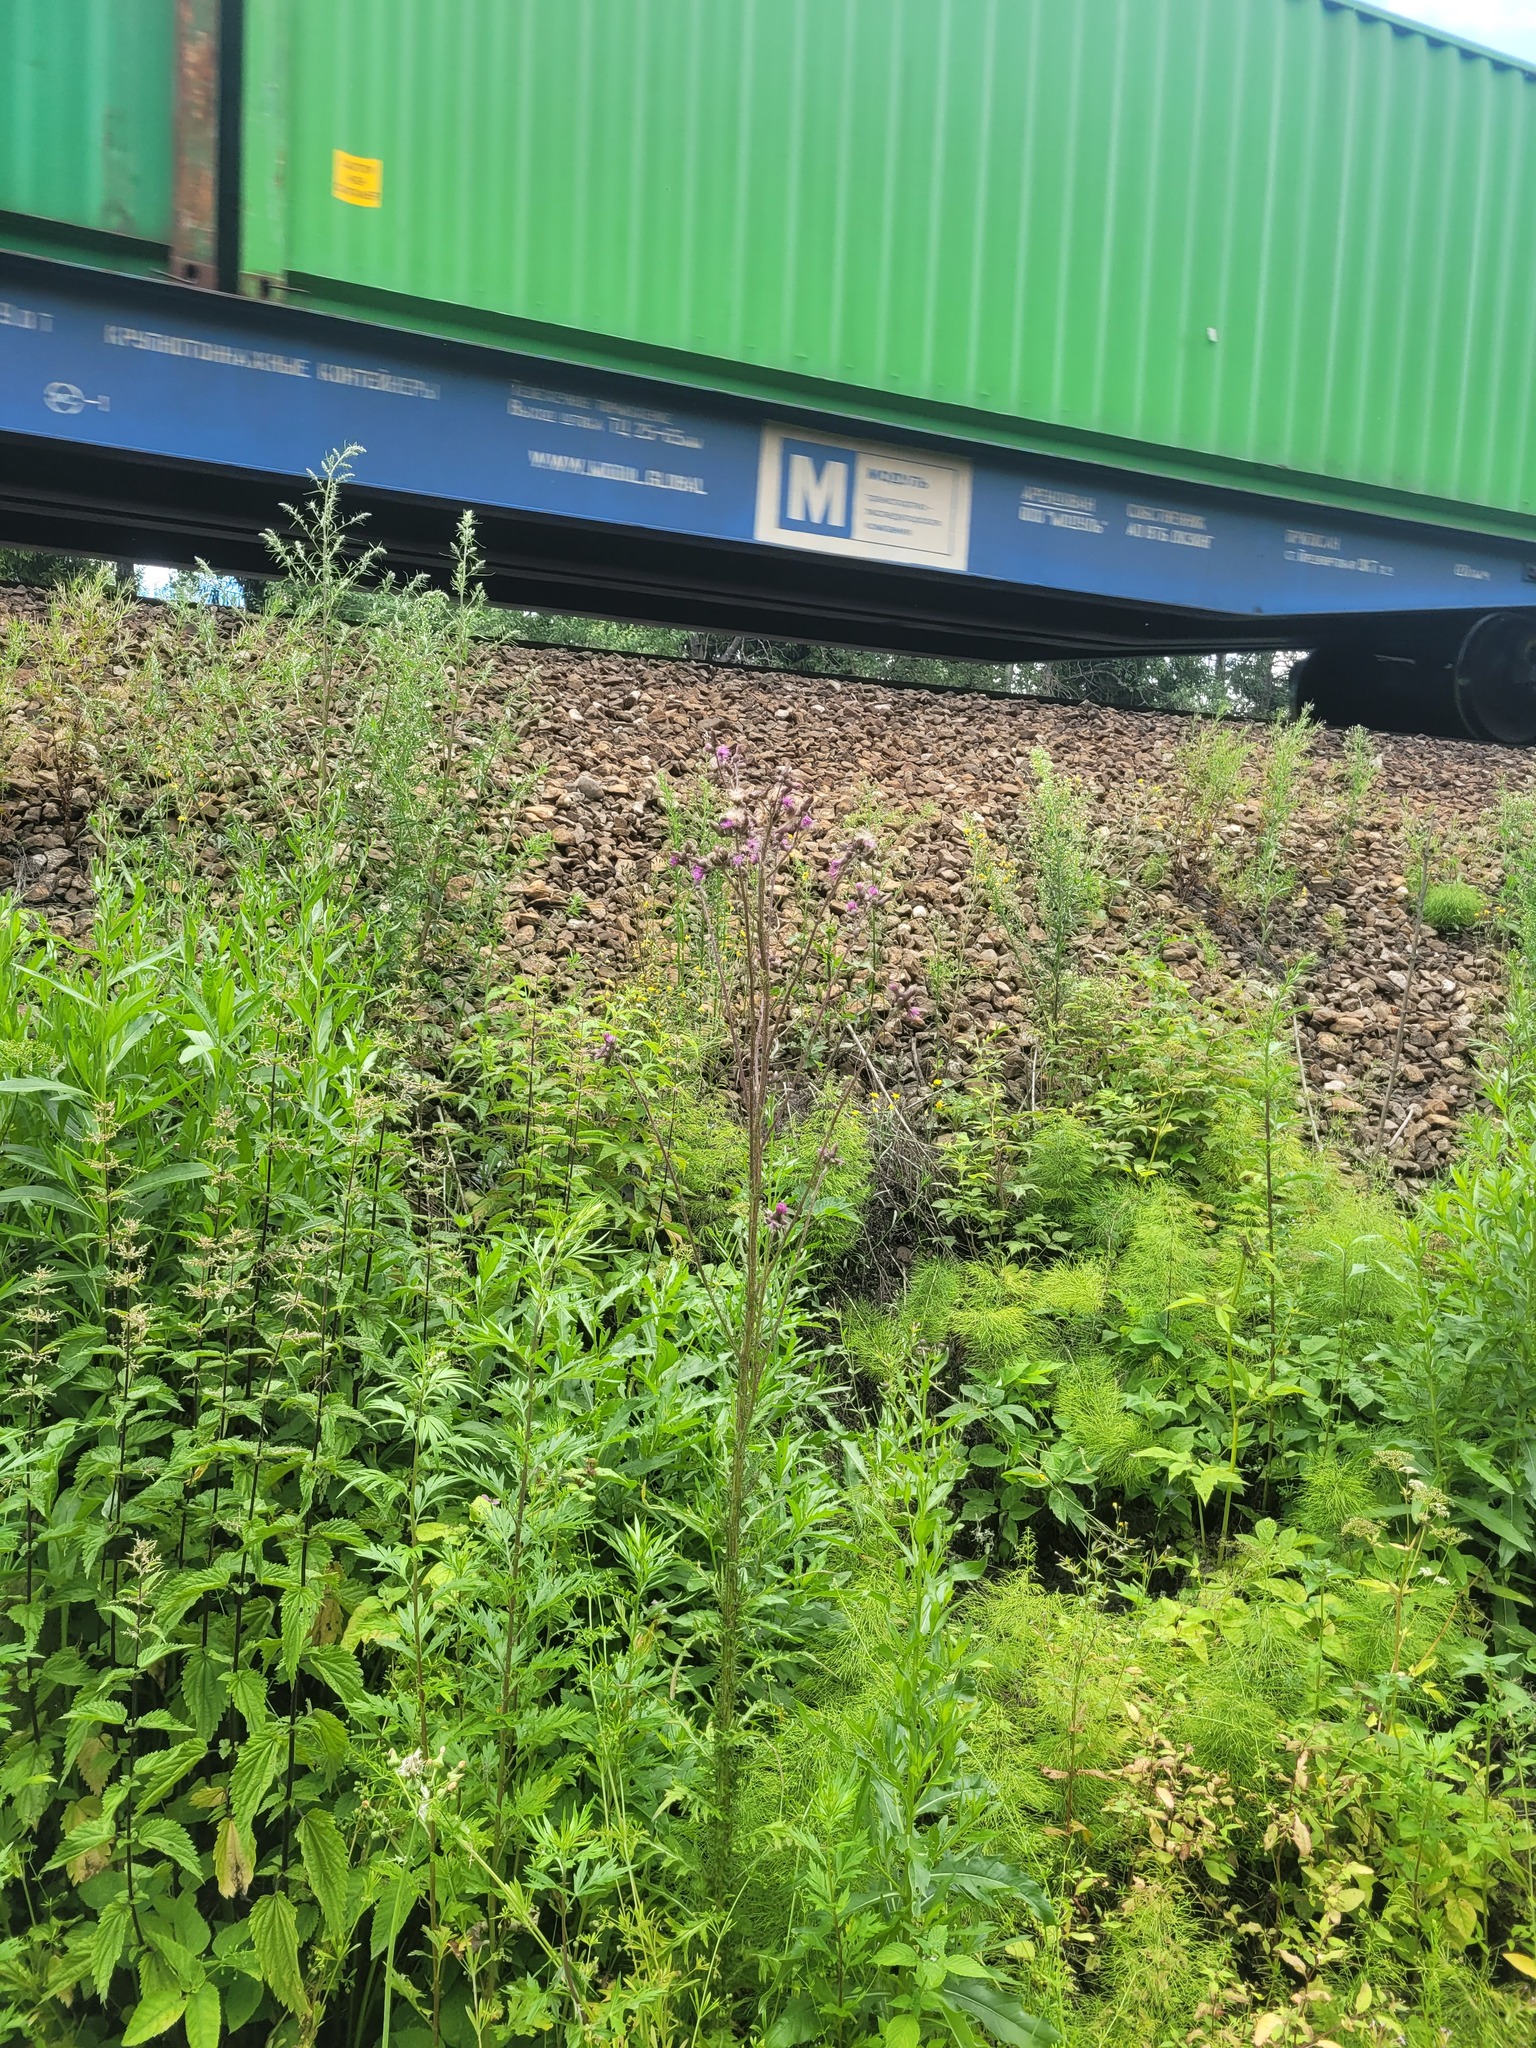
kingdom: Plantae
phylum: Tracheophyta
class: Magnoliopsida
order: Asterales
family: Asteraceae
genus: Cirsium
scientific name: Cirsium palustre
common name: Marsh thistle
